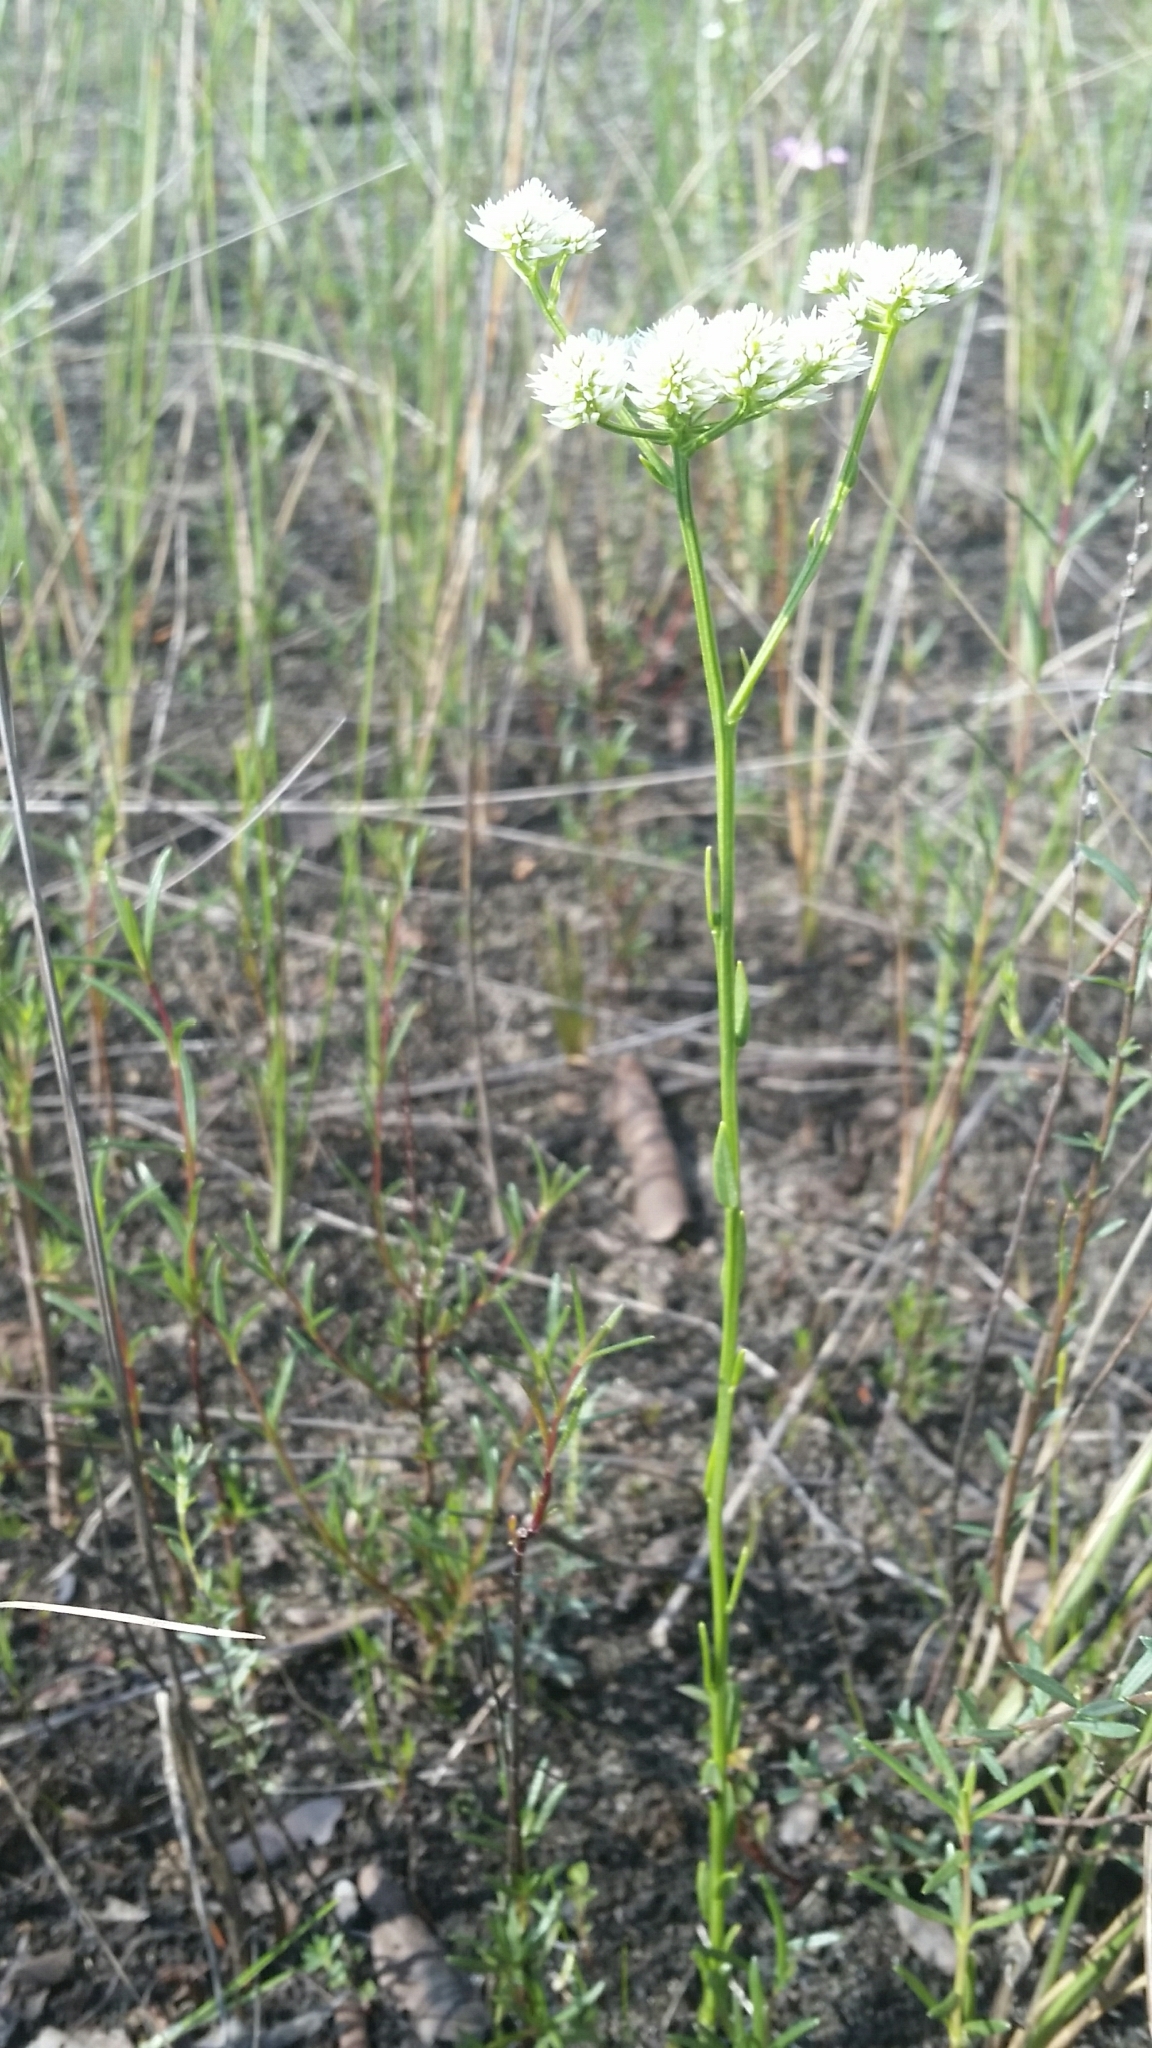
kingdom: Plantae
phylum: Tracheophyta
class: Magnoliopsida
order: Fabales
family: Polygalaceae
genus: Polygala
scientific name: Polygala baldwinii
